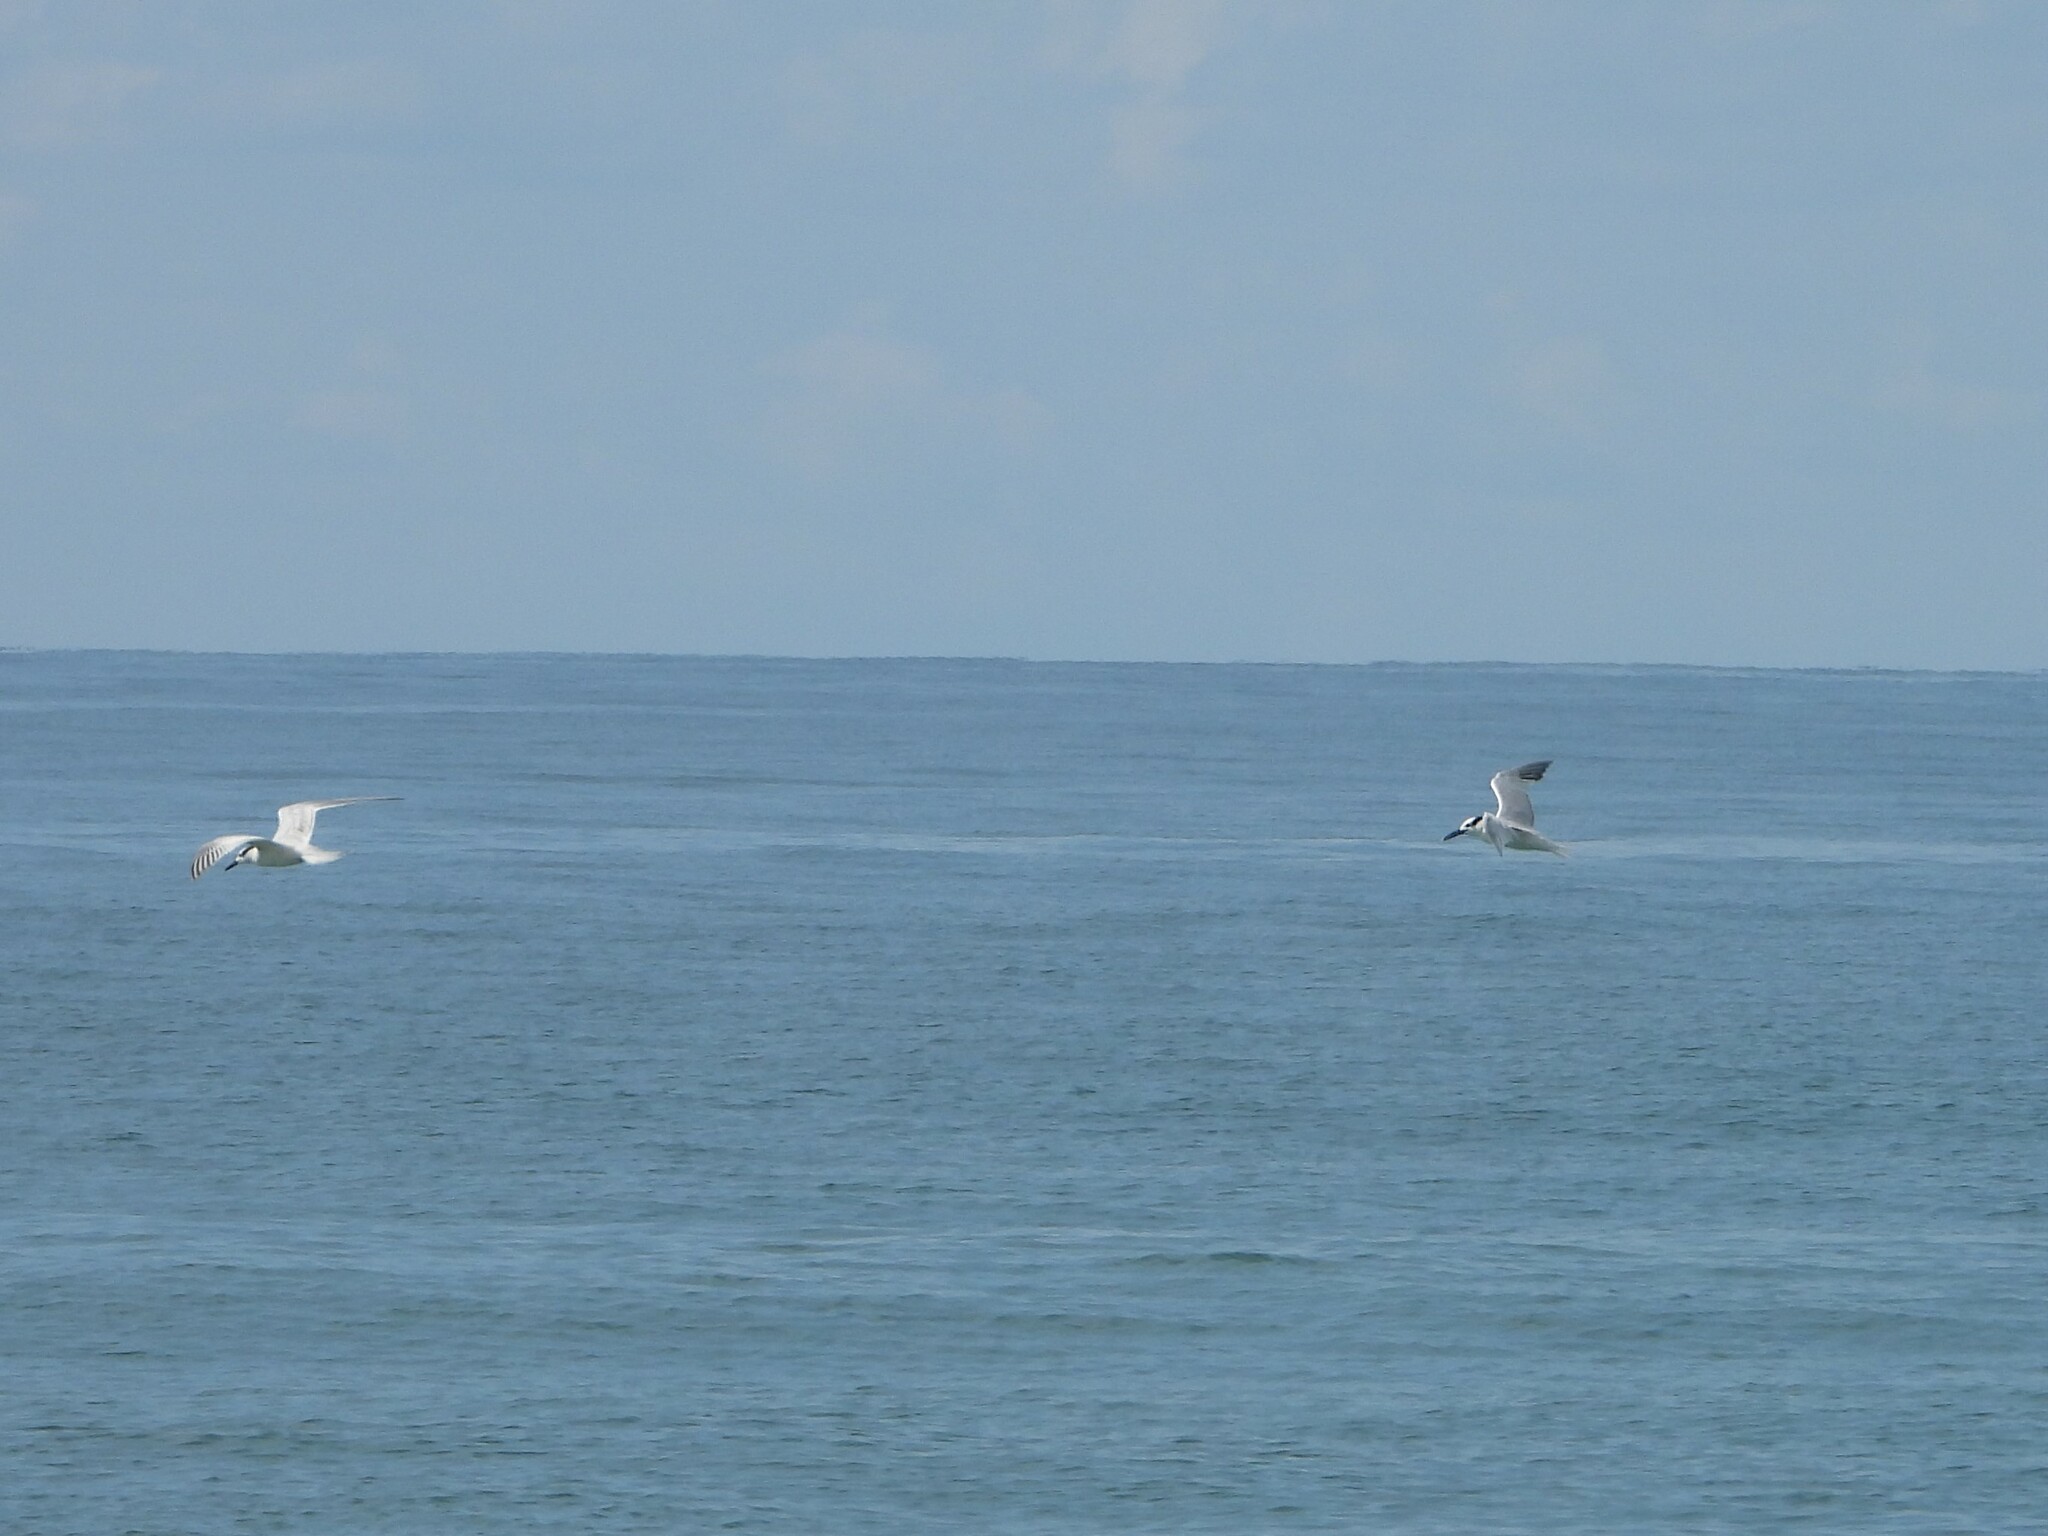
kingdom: Animalia
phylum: Chordata
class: Aves
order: Charadriiformes
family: Laridae
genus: Thalasseus
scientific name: Thalasseus sandvicensis
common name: Sandwich tern
